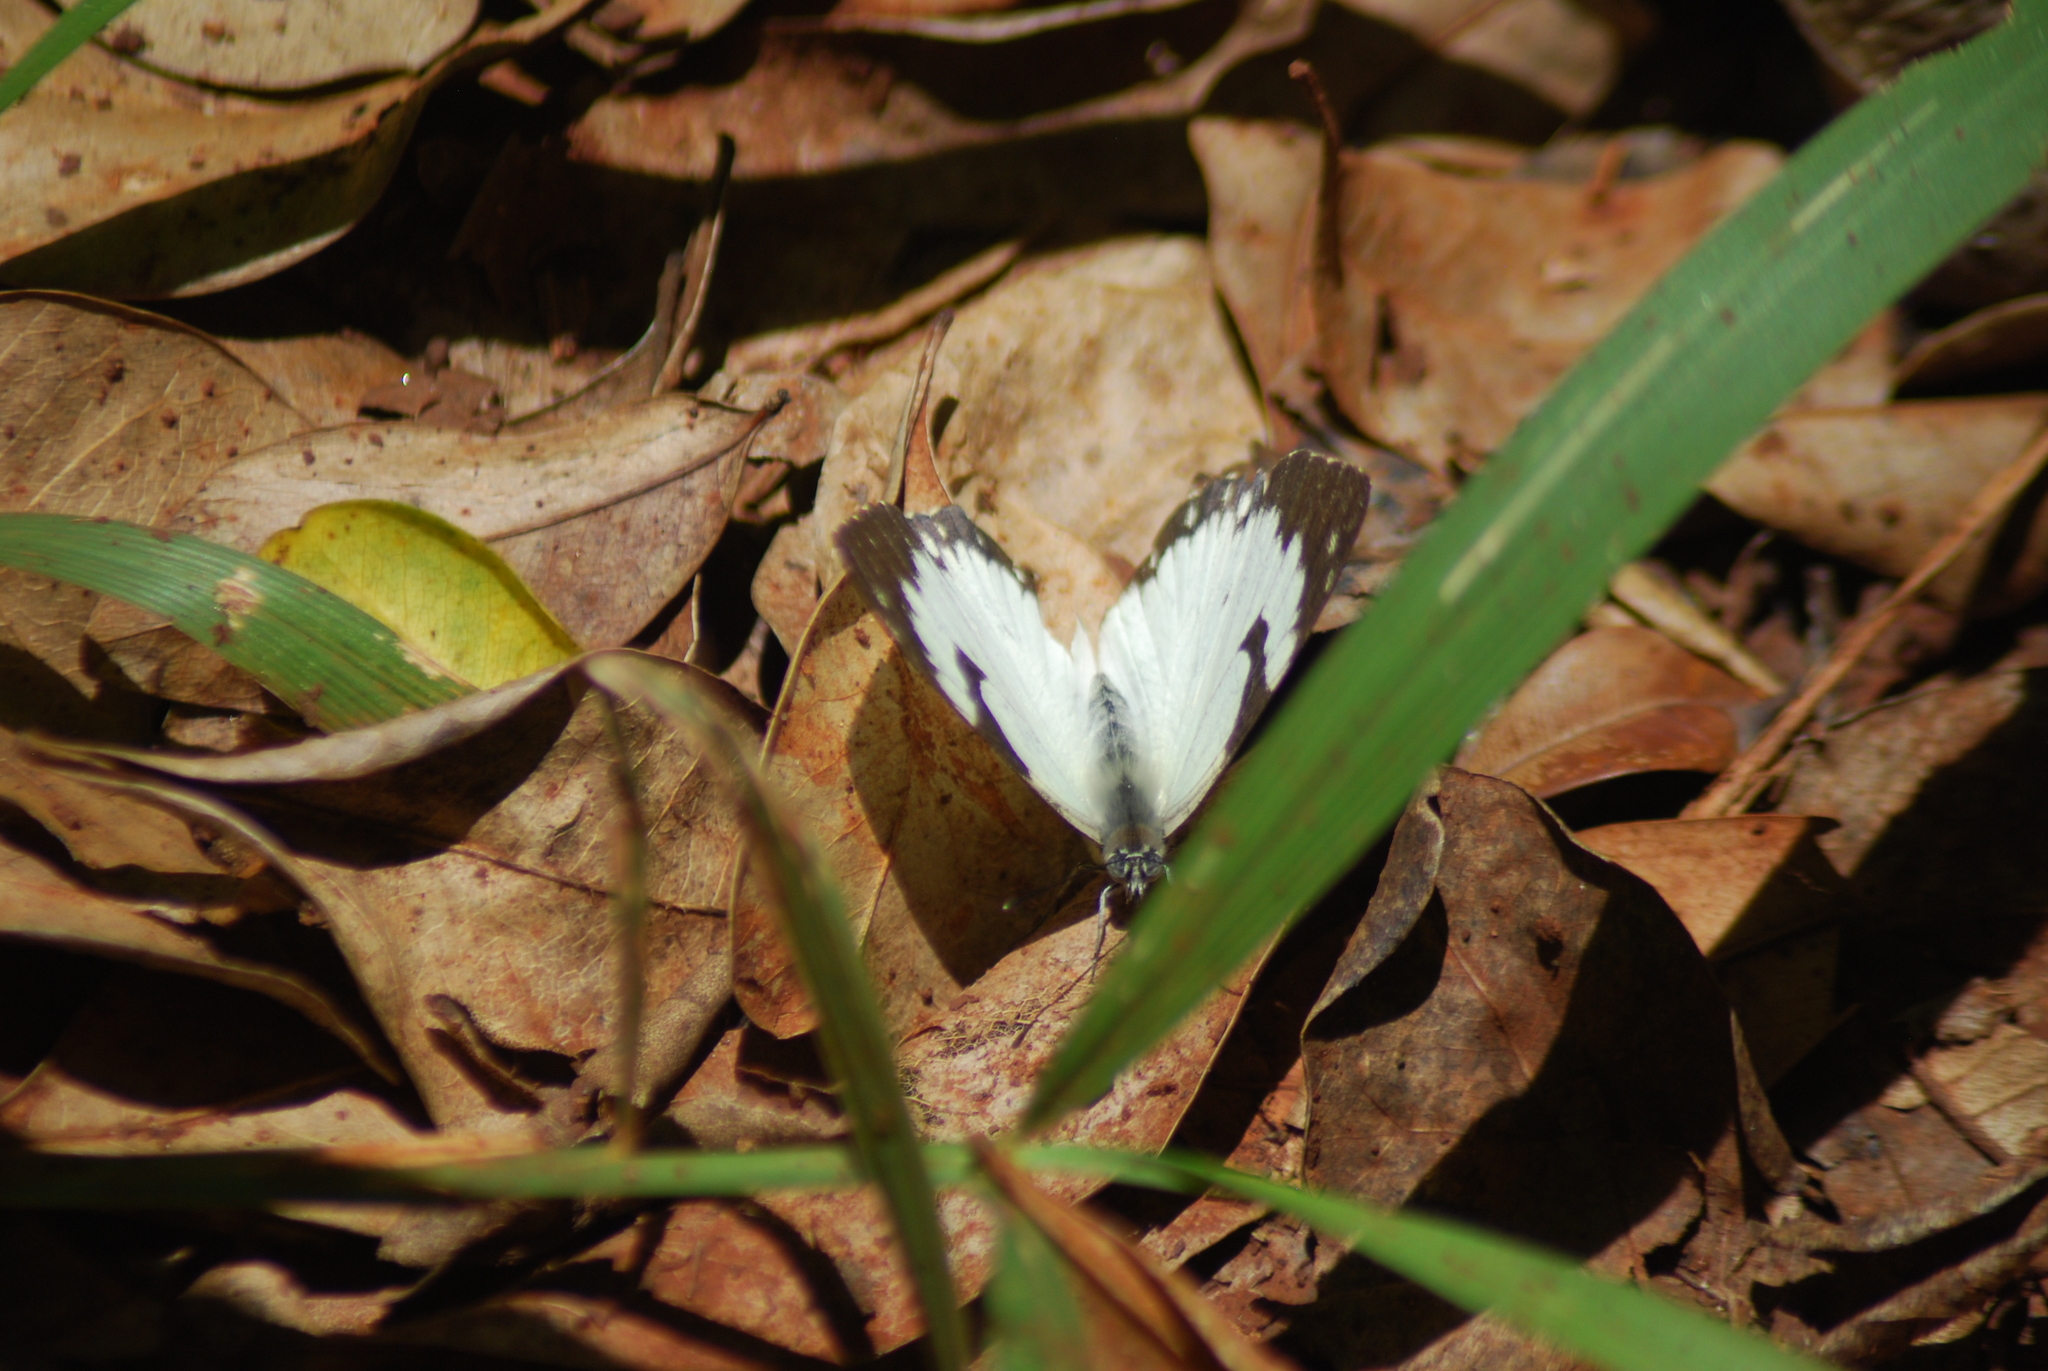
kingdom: Animalia
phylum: Arthropoda
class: Insecta
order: Lepidoptera
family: Pieridae
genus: Belenois
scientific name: Belenois creona
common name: African caper white
